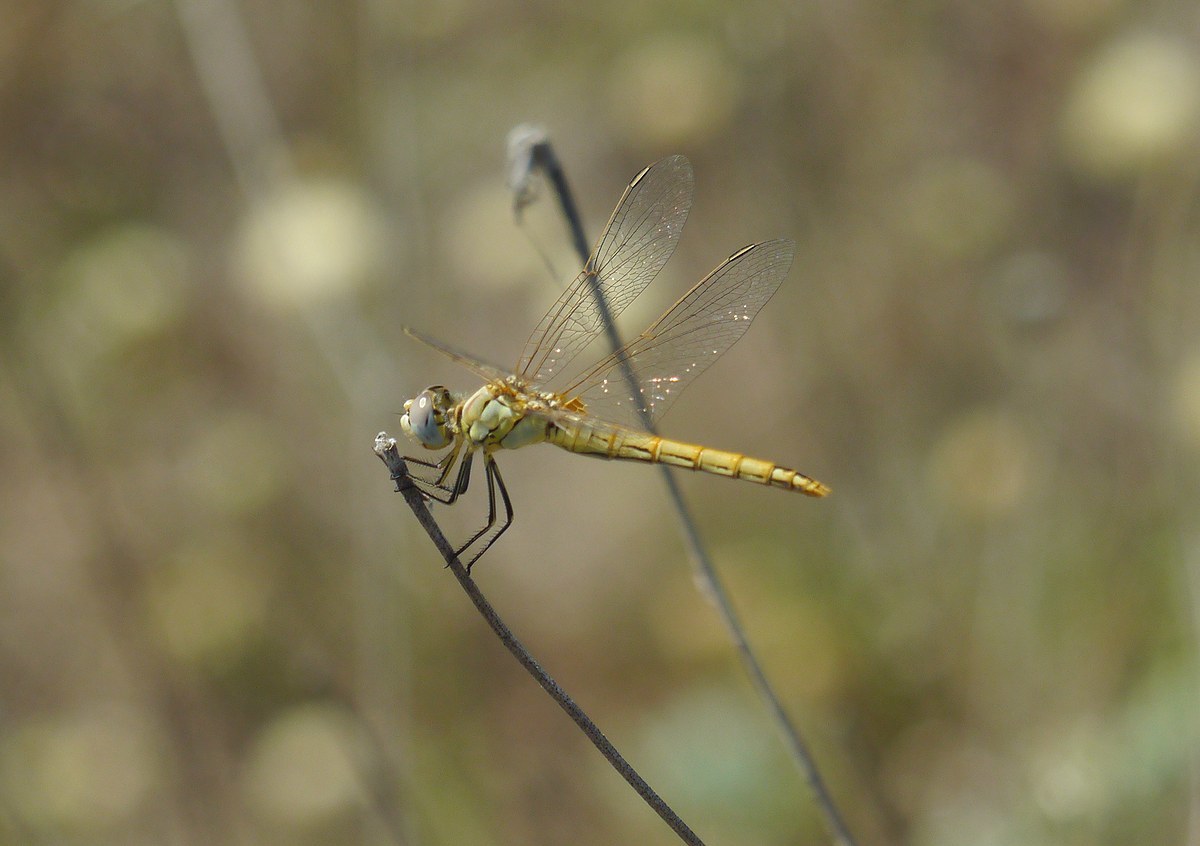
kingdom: Animalia
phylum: Arthropoda
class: Insecta
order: Odonata
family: Libellulidae
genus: Sympetrum
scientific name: Sympetrum fonscolombii
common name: Red-veined darter
